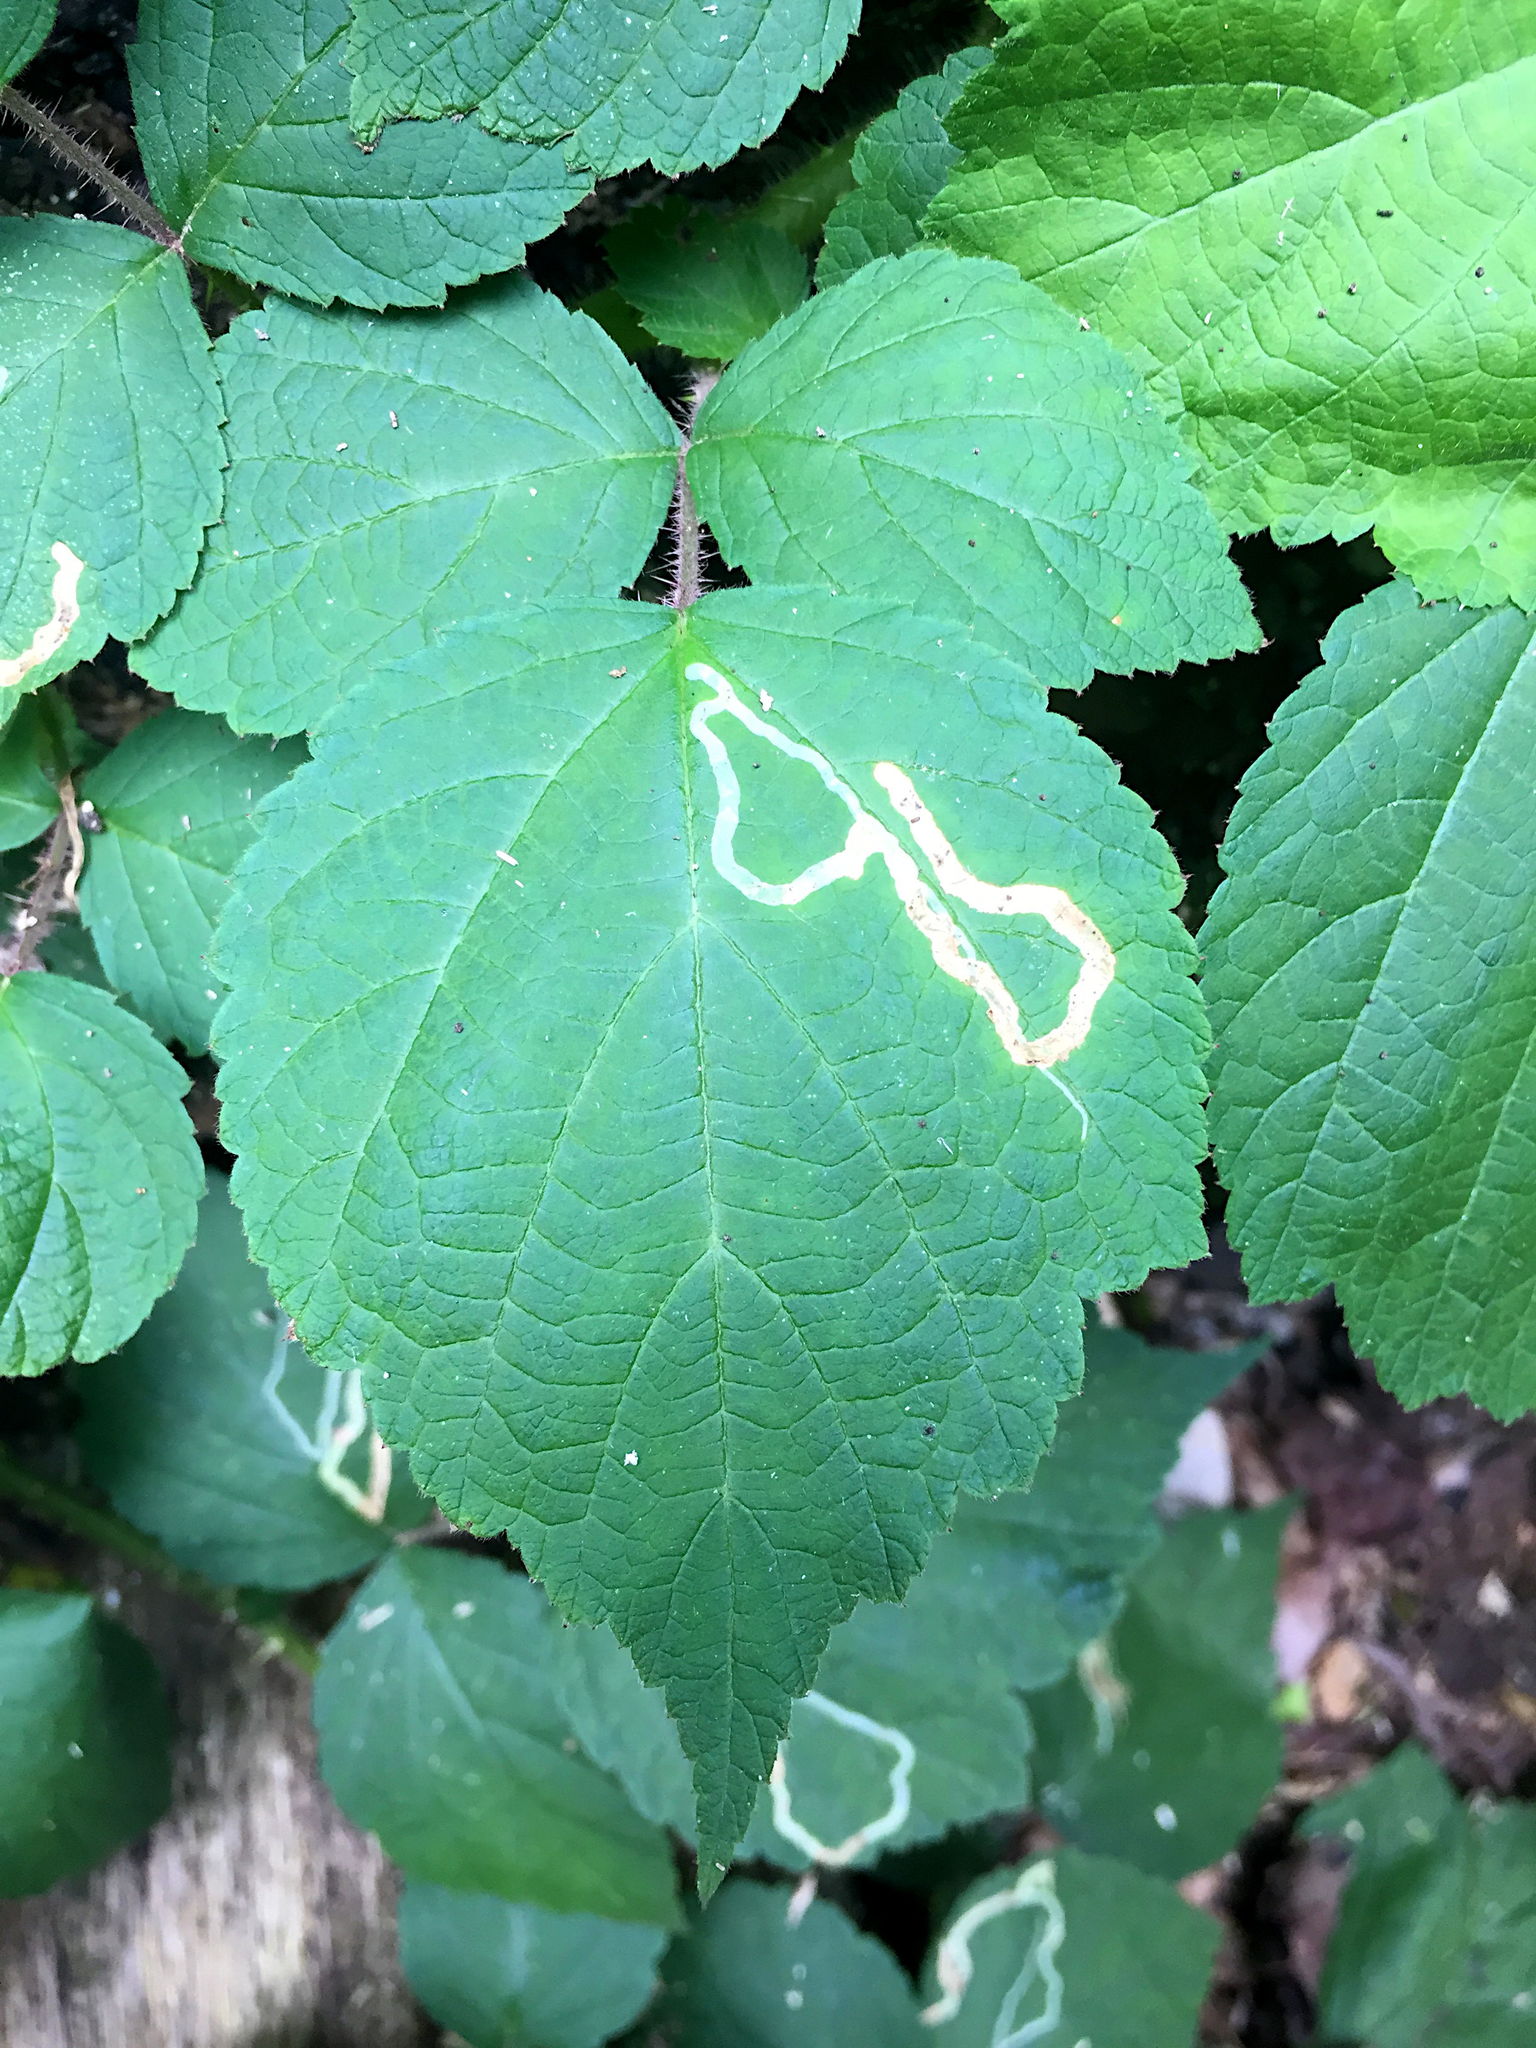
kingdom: Animalia
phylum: Arthropoda
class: Insecta
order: Diptera
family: Agromyzidae
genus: Agromyza
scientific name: Agromyza vockerothi
